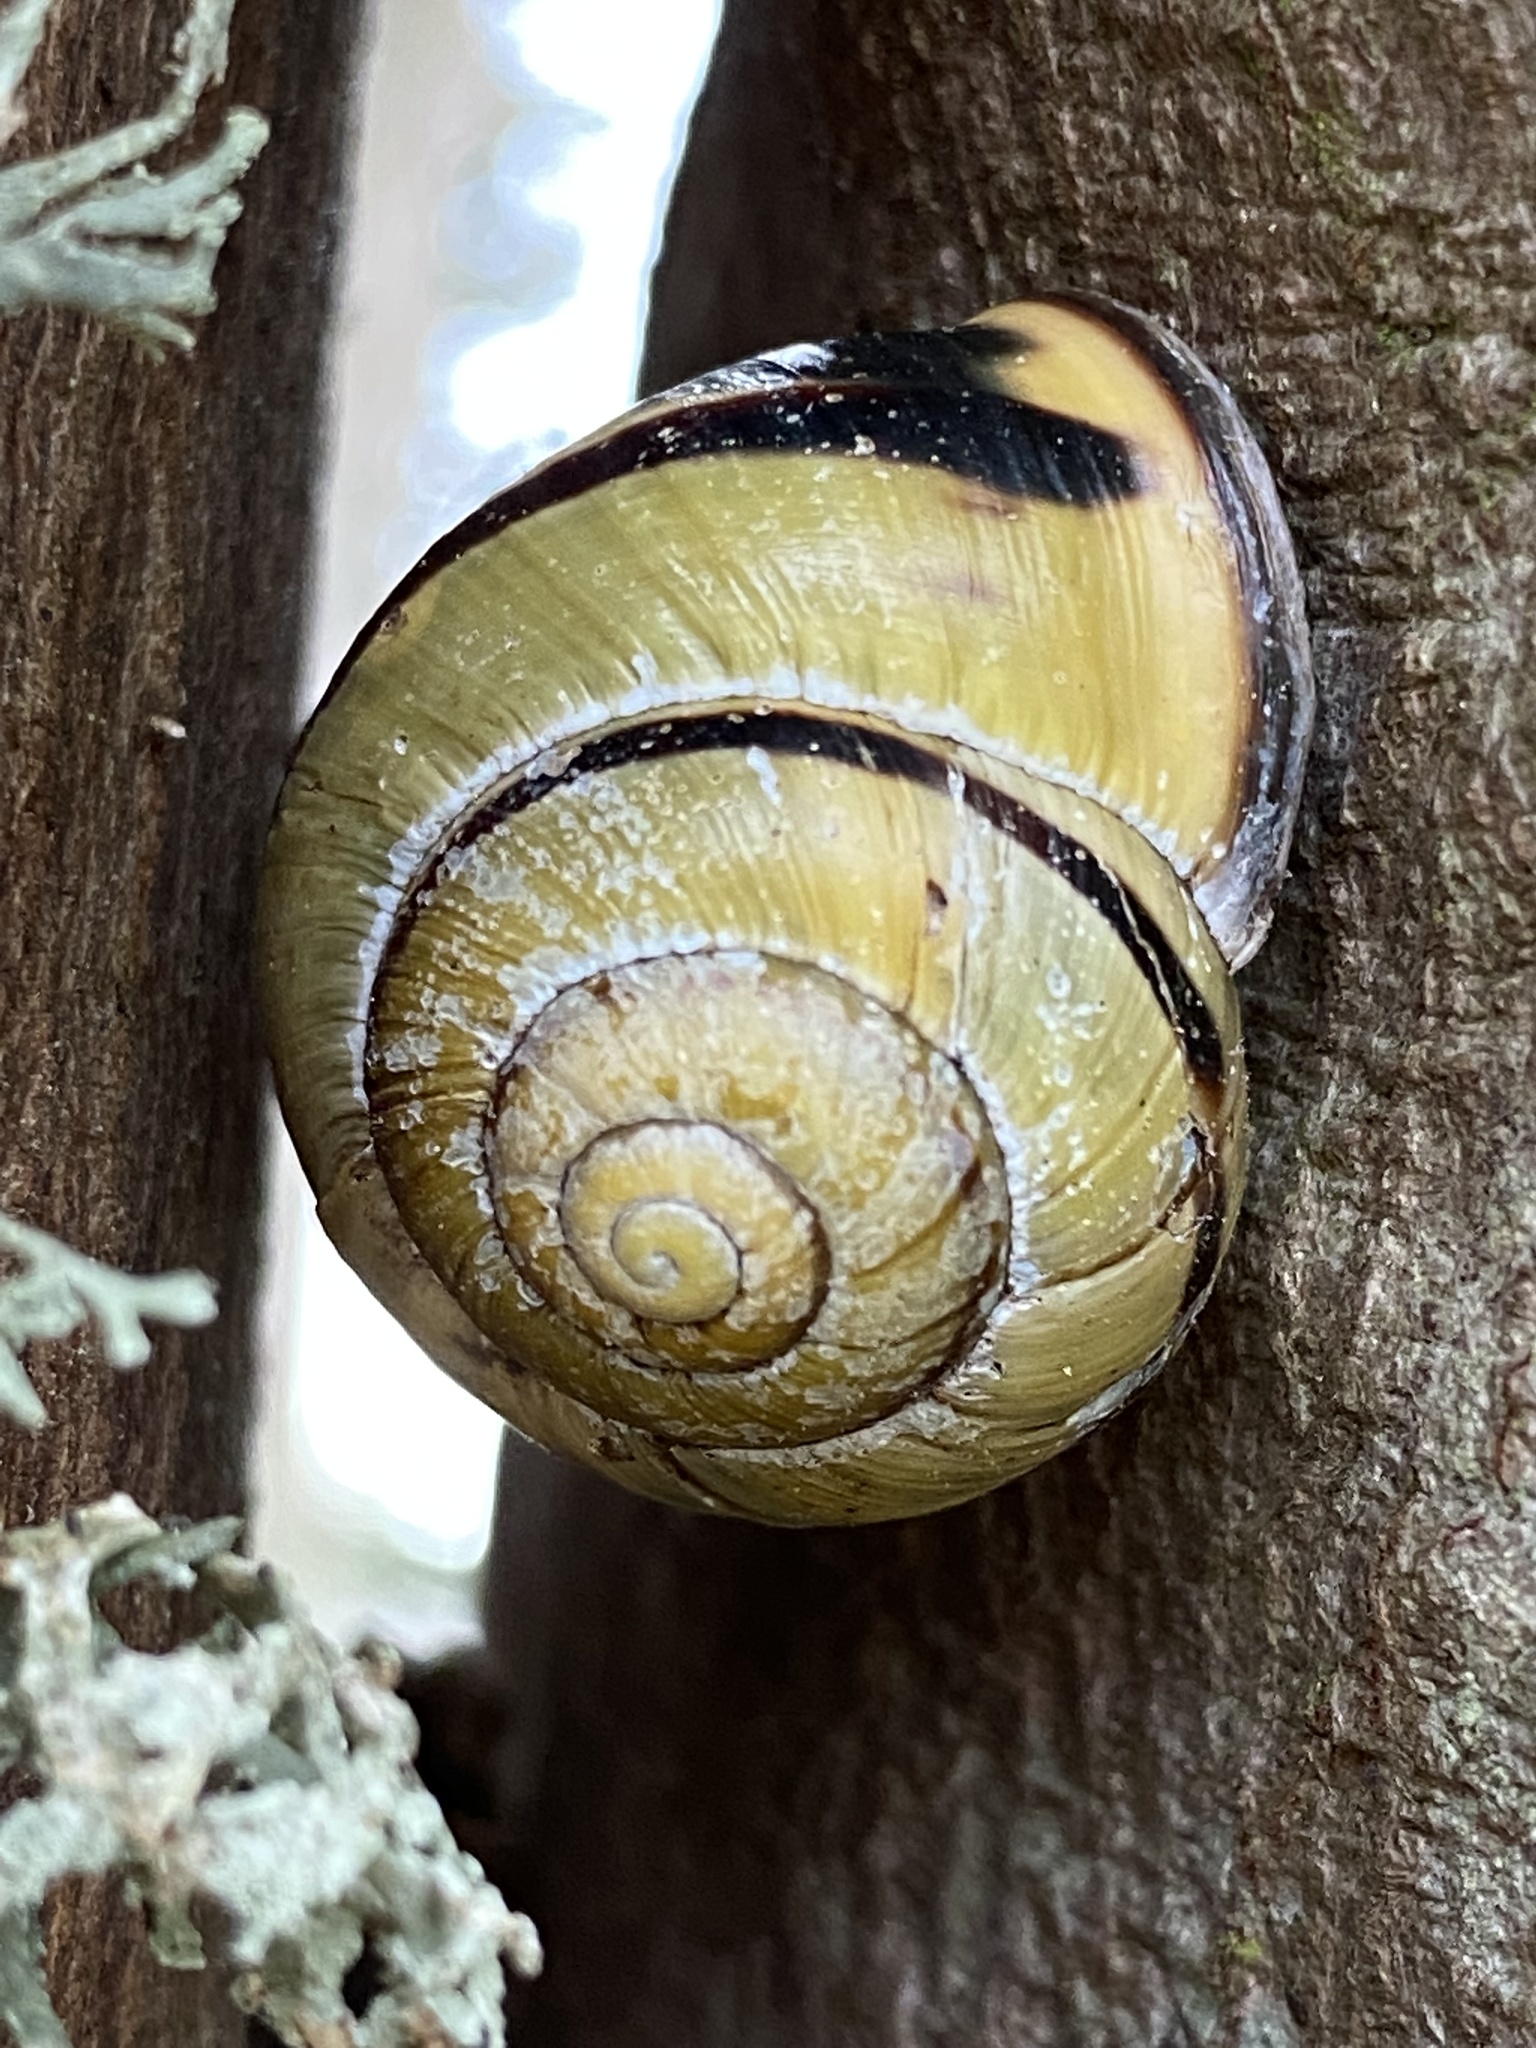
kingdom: Animalia
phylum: Mollusca
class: Gastropoda
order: Stylommatophora
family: Helicidae
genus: Cepaea
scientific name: Cepaea nemoralis
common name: Grovesnail
